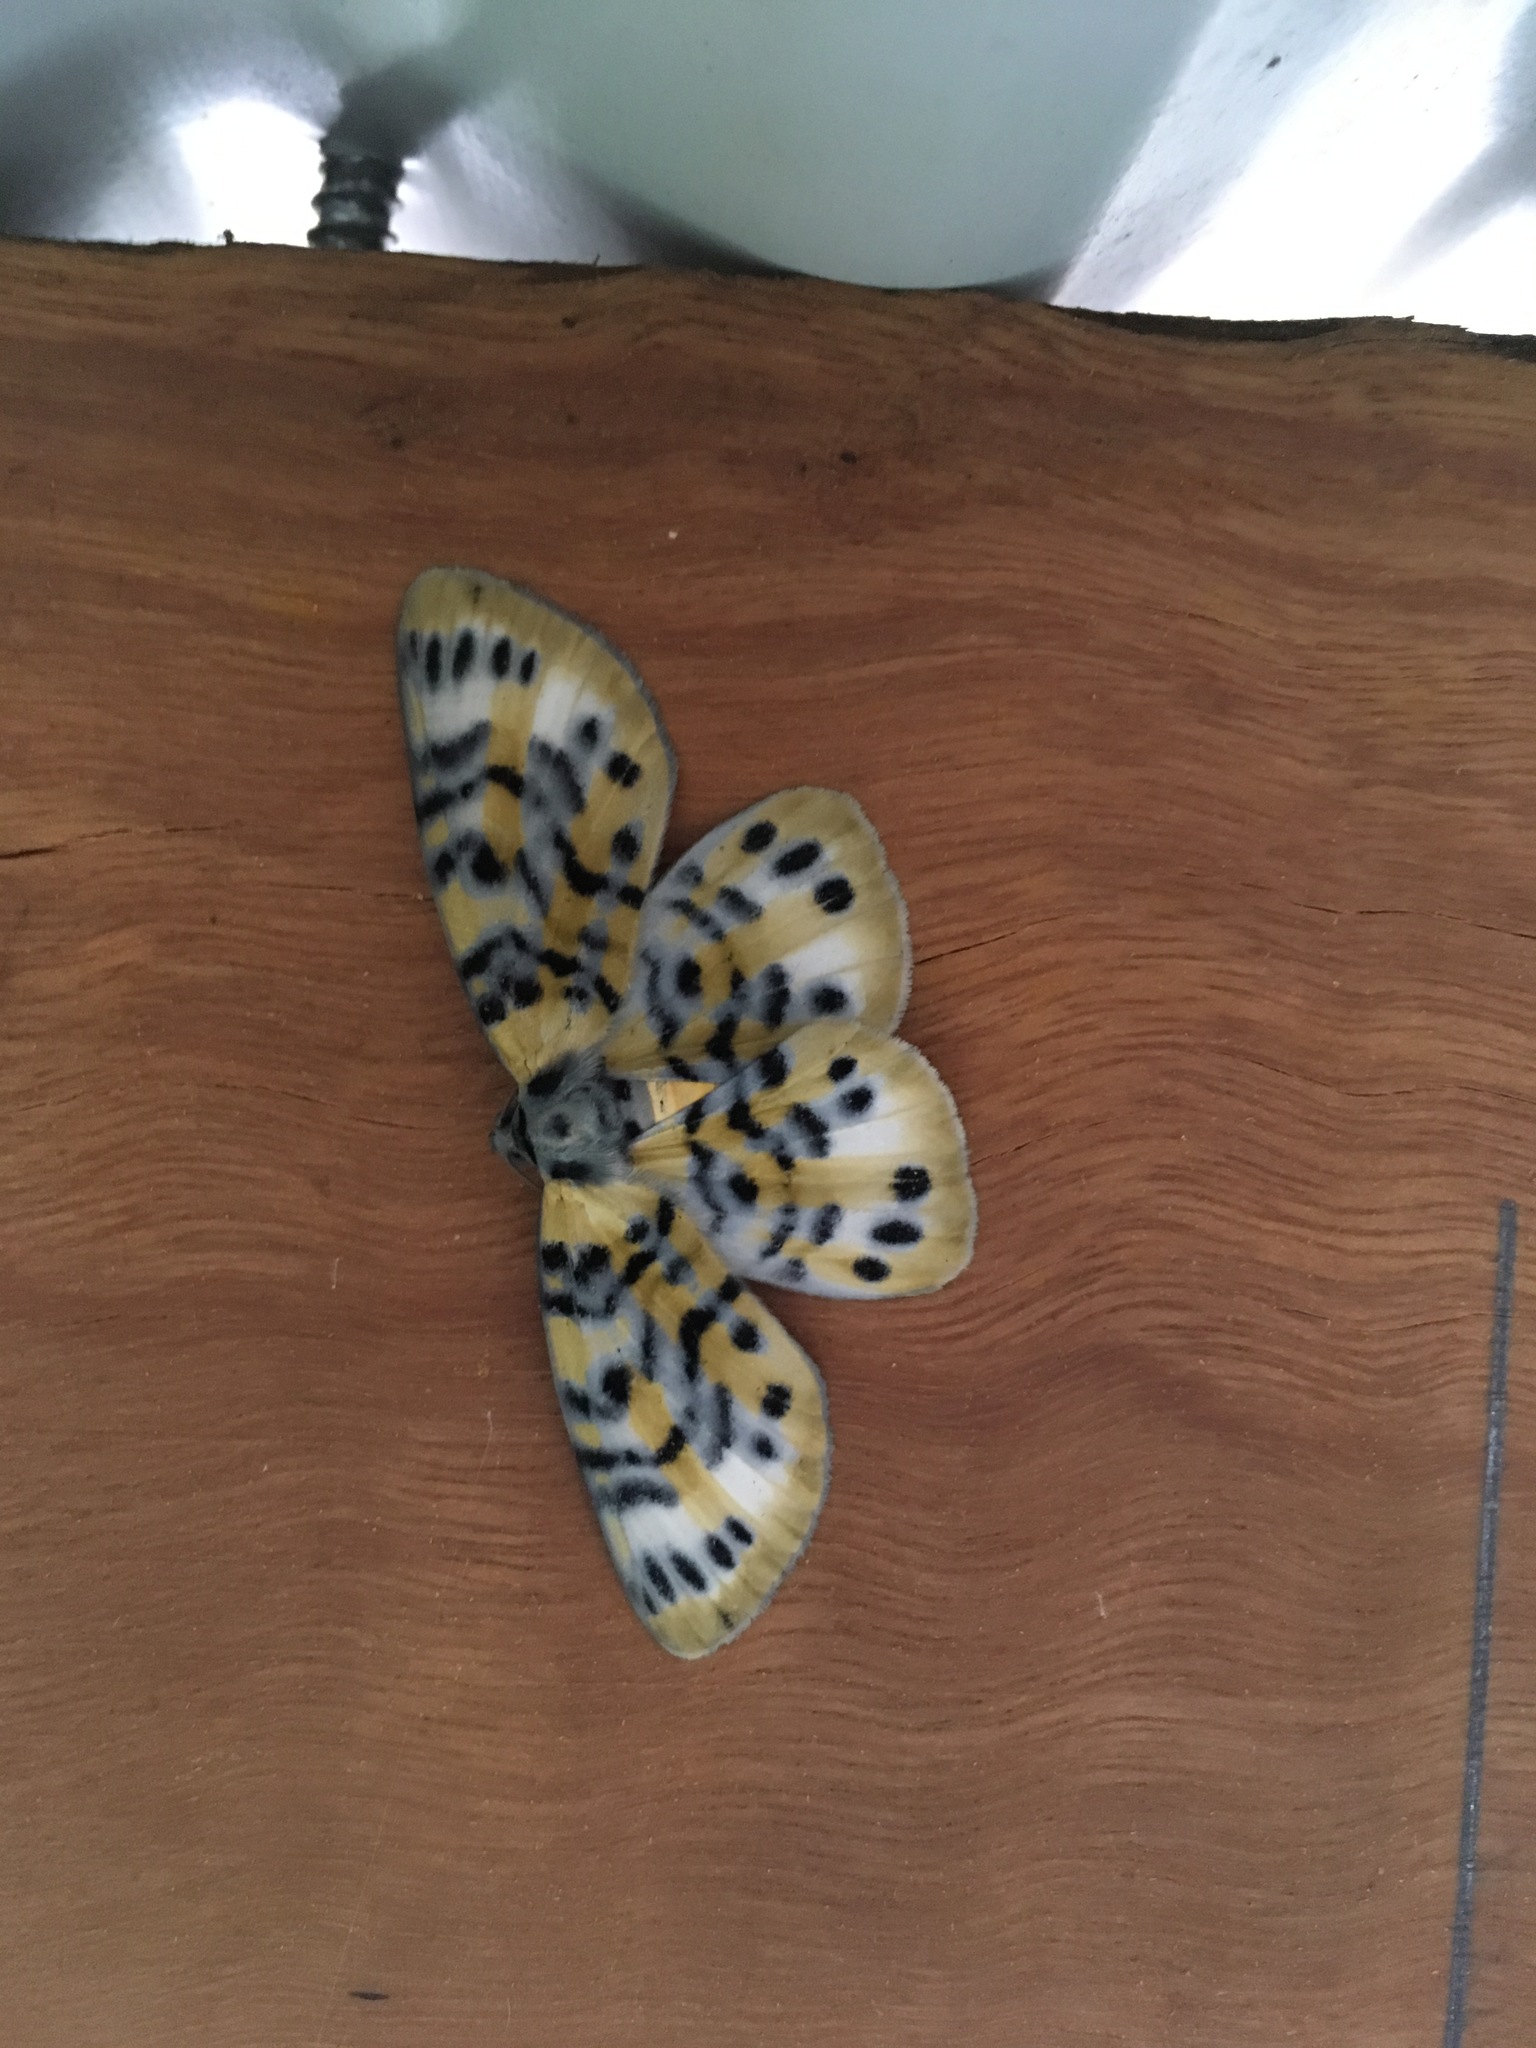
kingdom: Animalia
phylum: Arthropoda
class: Insecta
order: Lepidoptera
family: Geometridae
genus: Bracca
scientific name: Bracca rotundata
